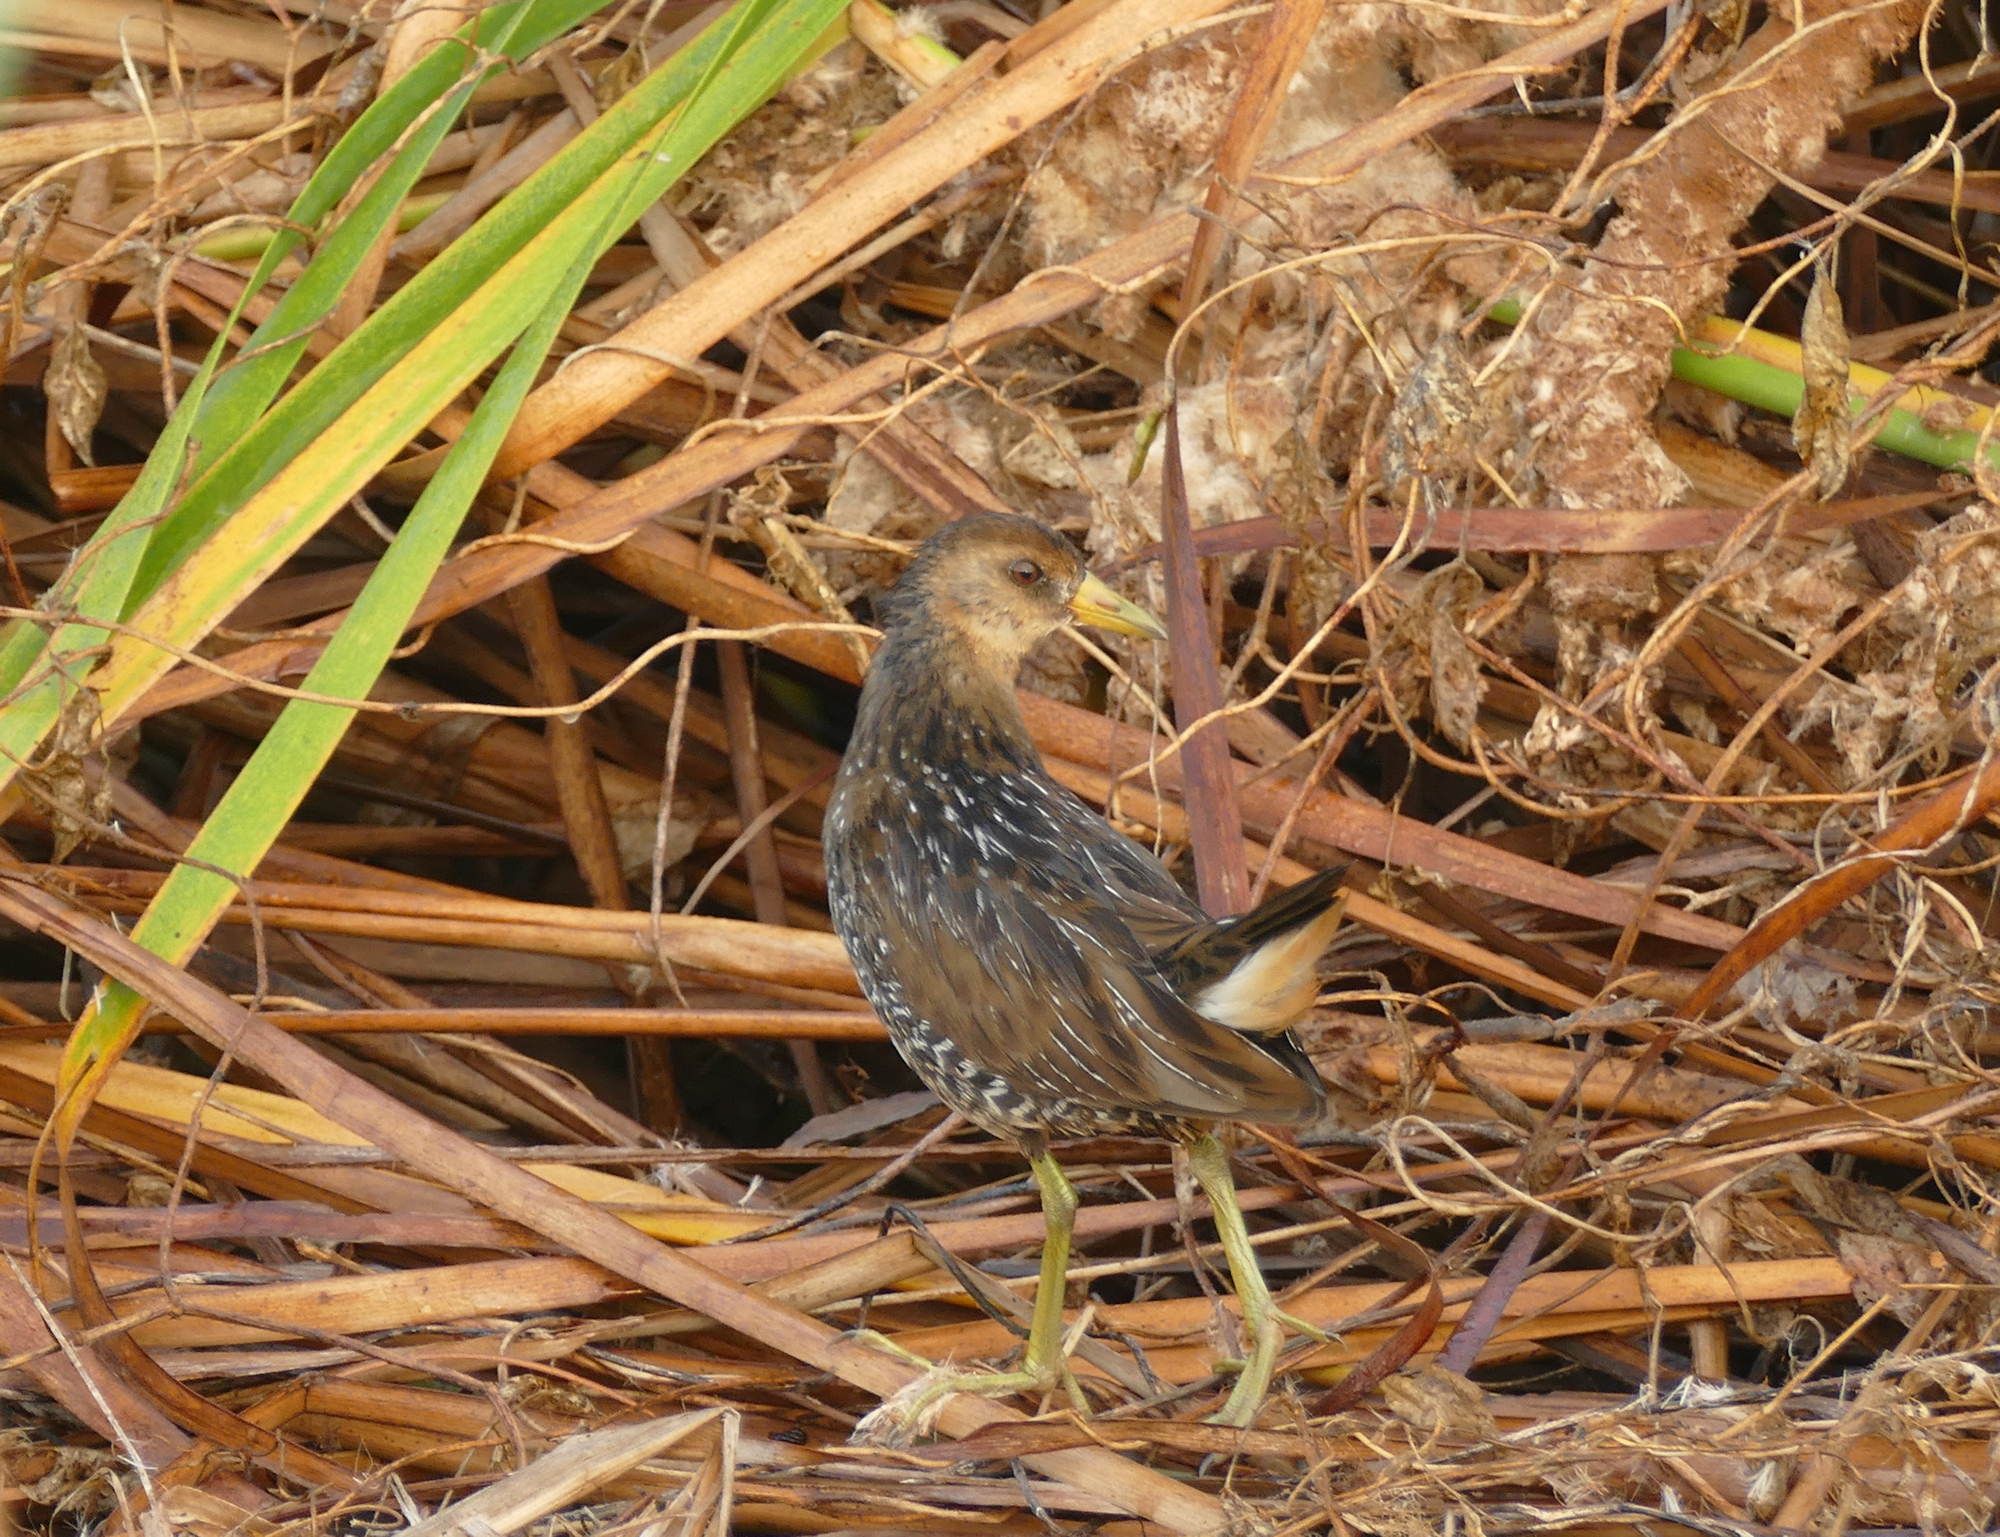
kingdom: Animalia
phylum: Chordata
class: Aves
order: Gruiformes
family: Rallidae
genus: Porzana
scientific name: Porzana carolina
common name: Sora
